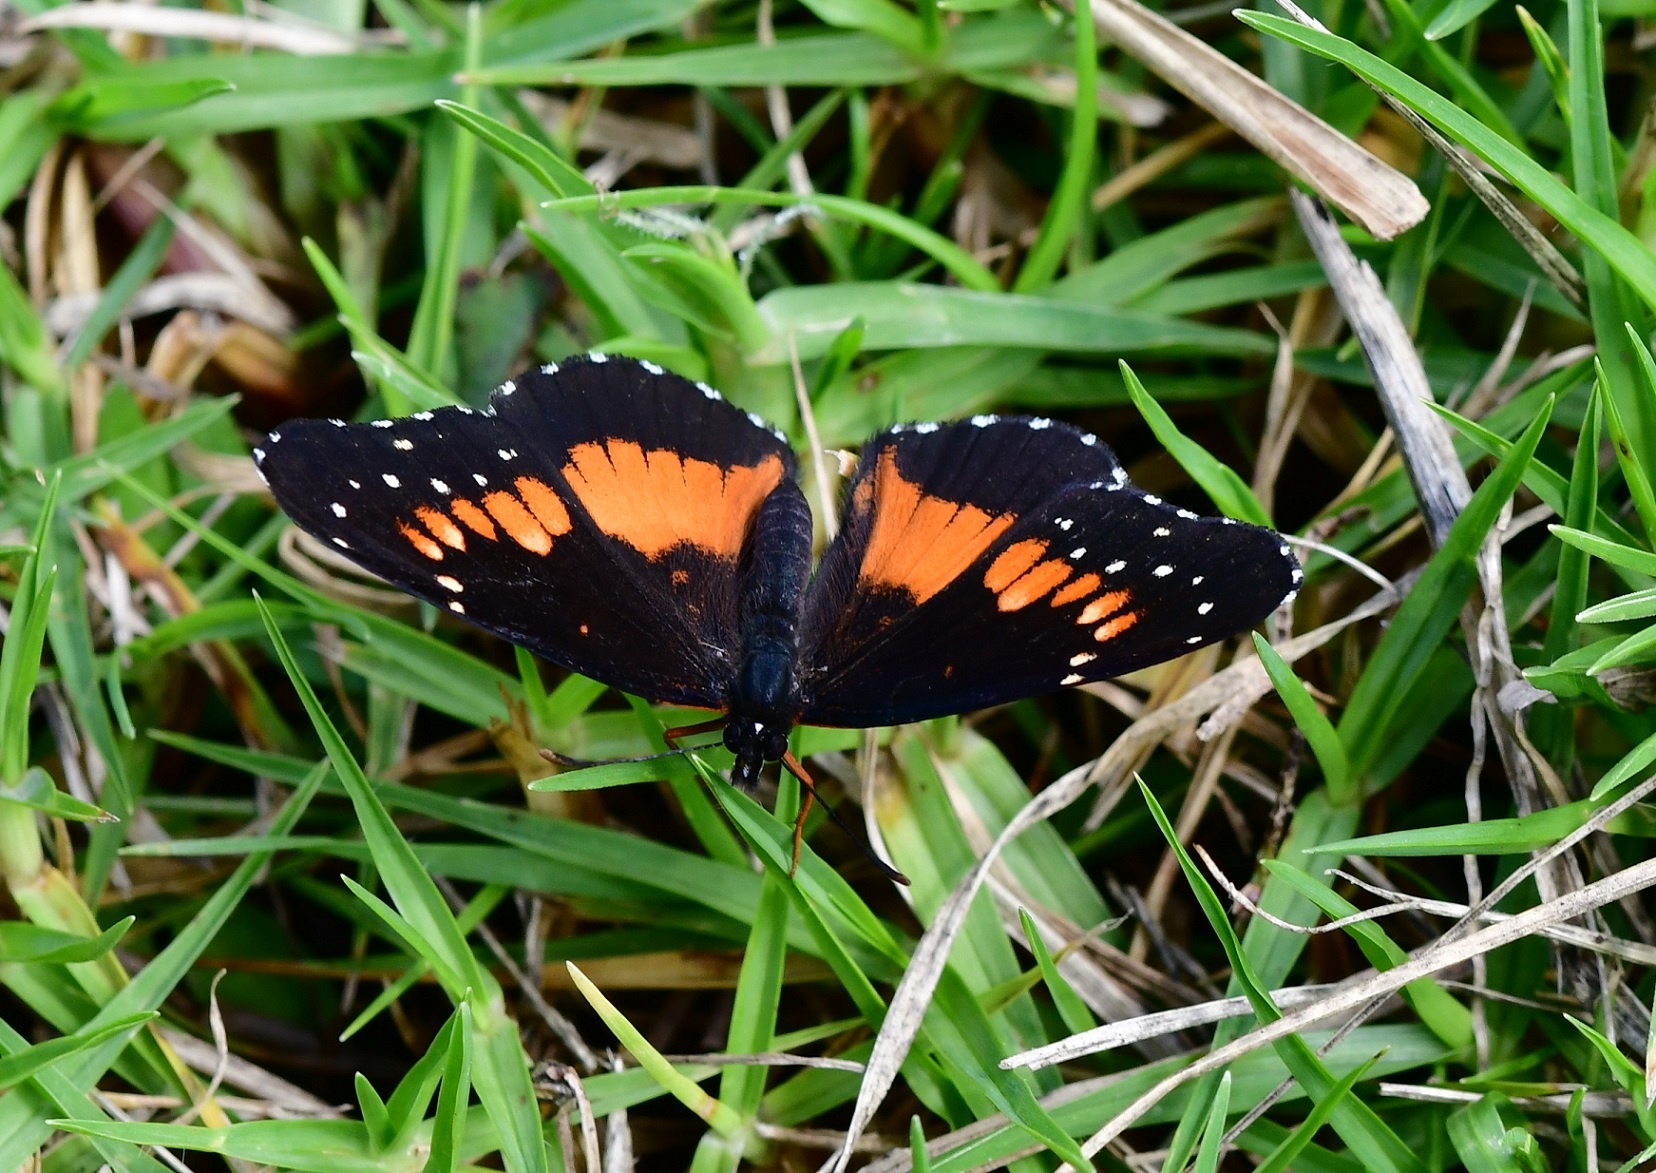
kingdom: Animalia
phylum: Arthropoda
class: Insecta
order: Lepidoptera
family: Nymphalidae
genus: Chlosyne
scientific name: Chlosyne lacinia
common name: Bordered patch
